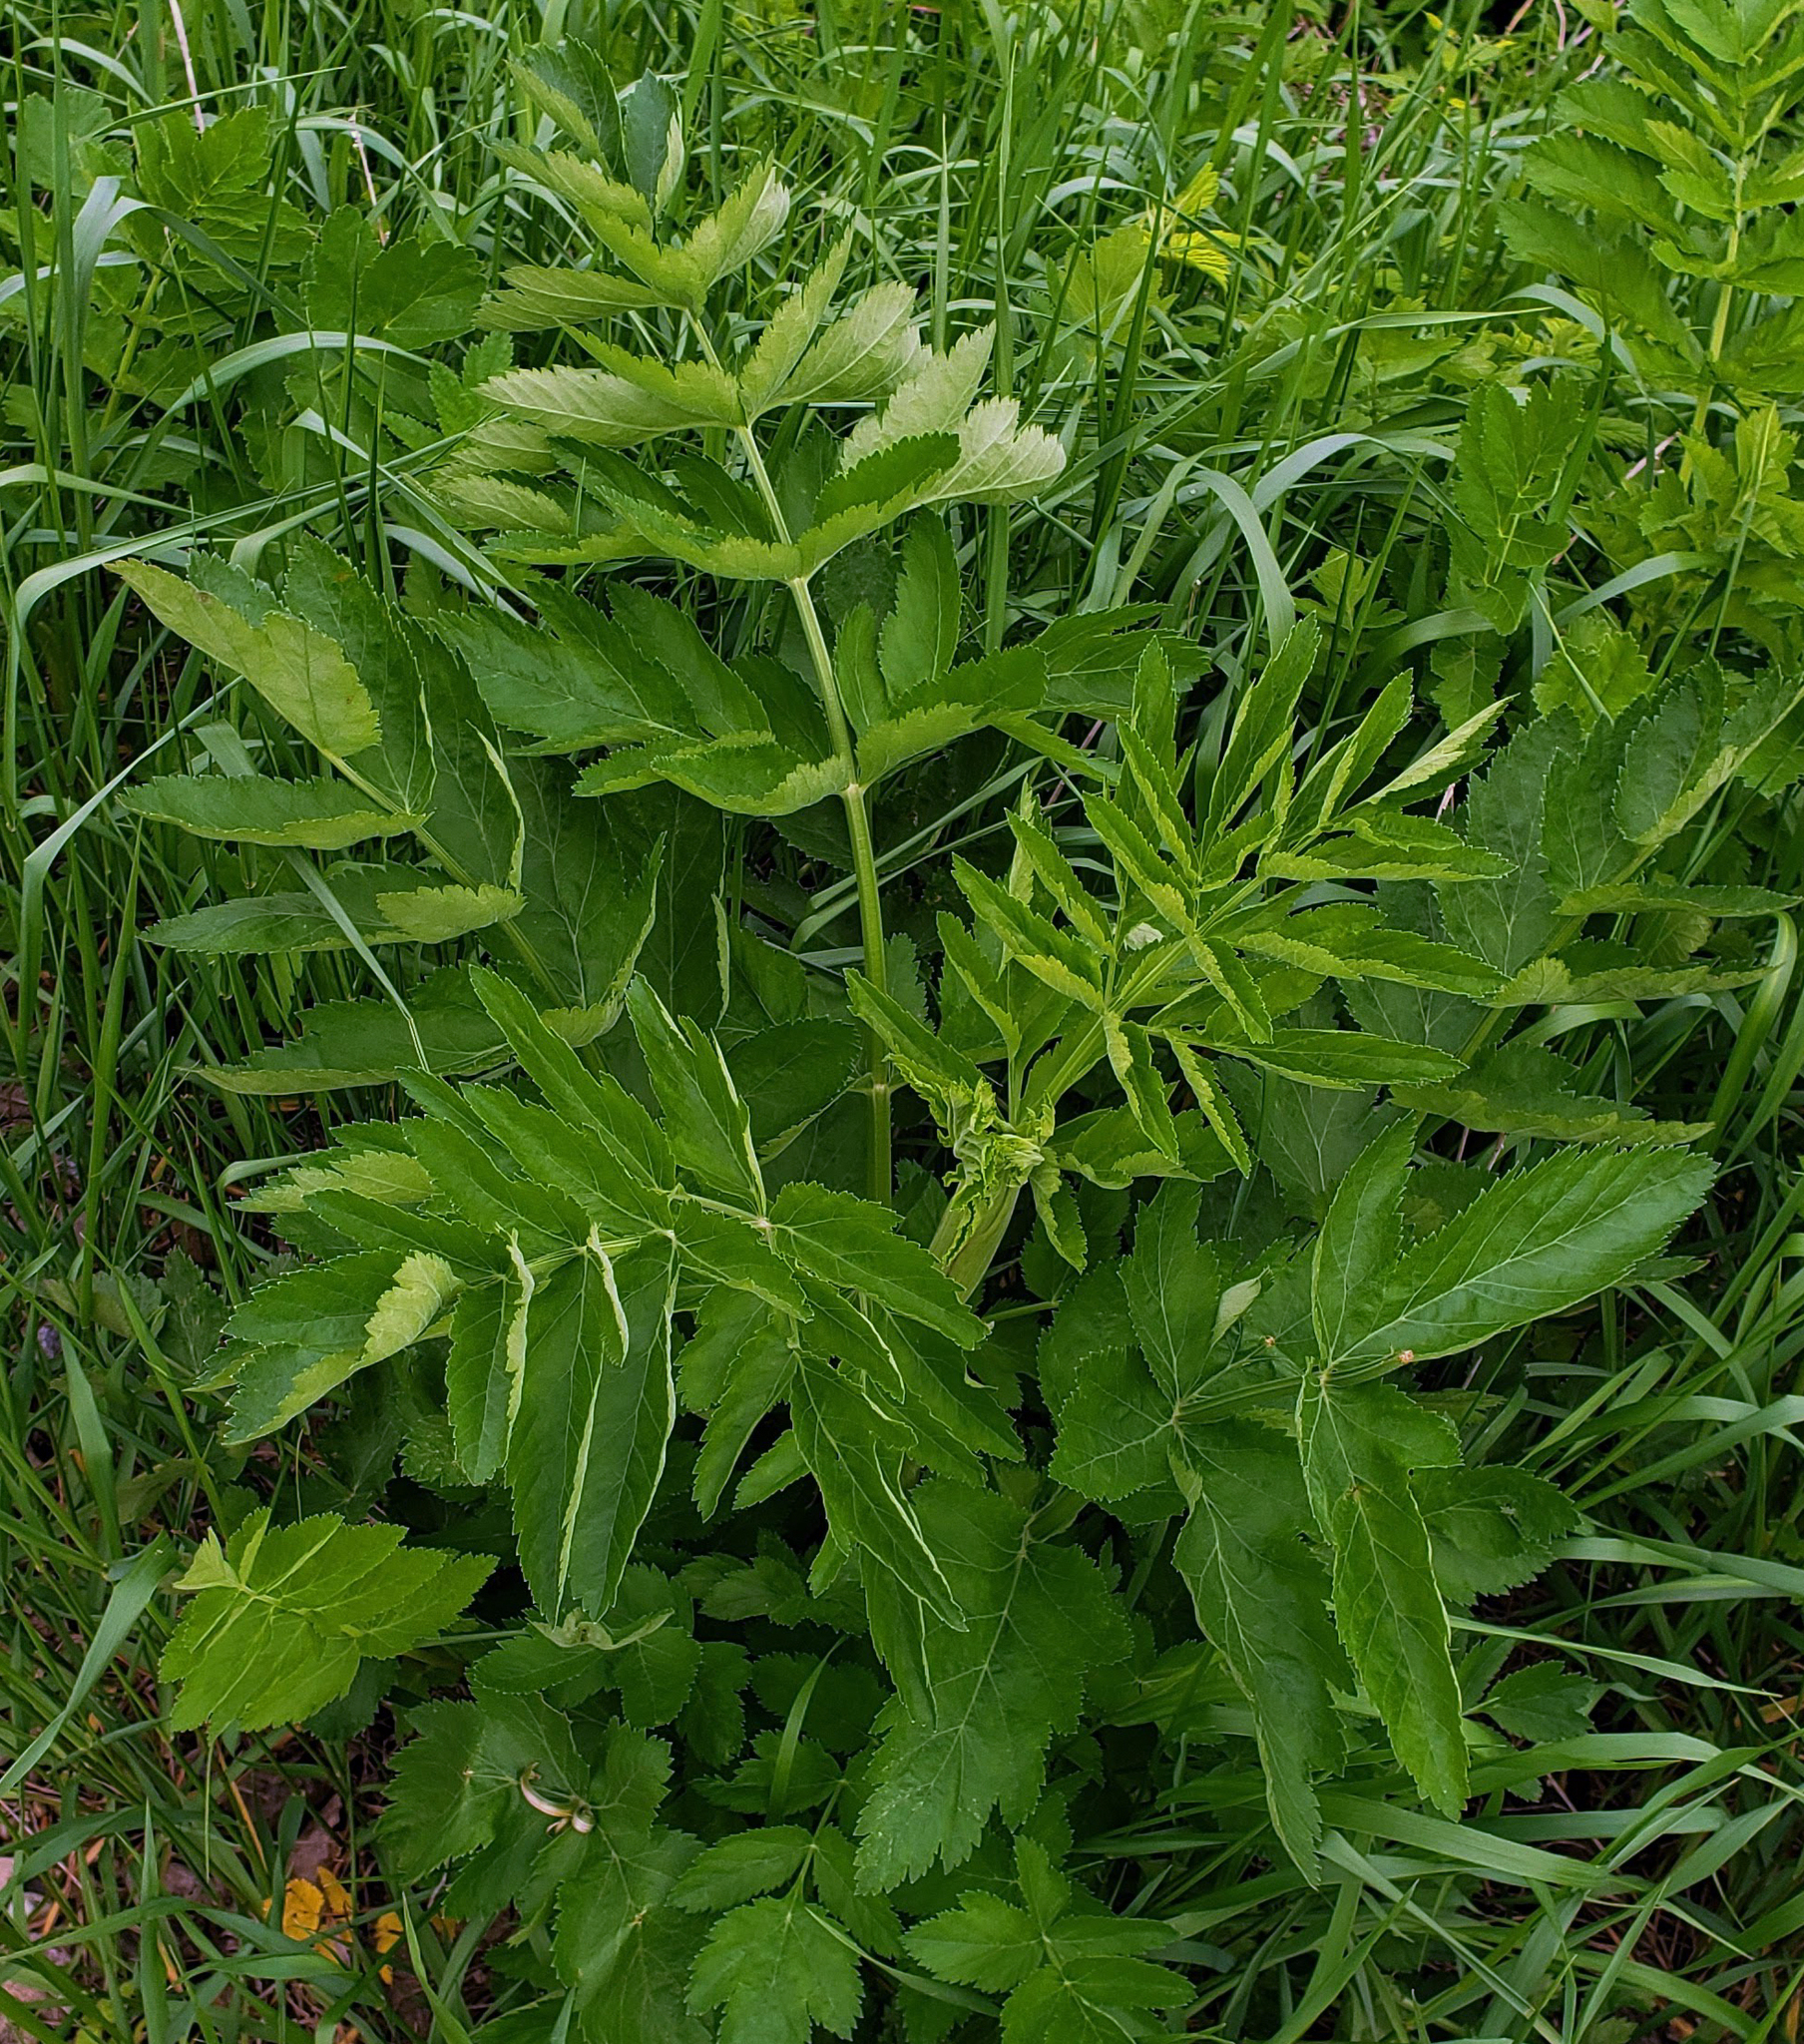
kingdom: Plantae
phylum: Tracheophyta
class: Magnoliopsida
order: Apiales
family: Apiaceae
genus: Pastinaca
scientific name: Pastinaca sativa
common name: Wild parsnip
